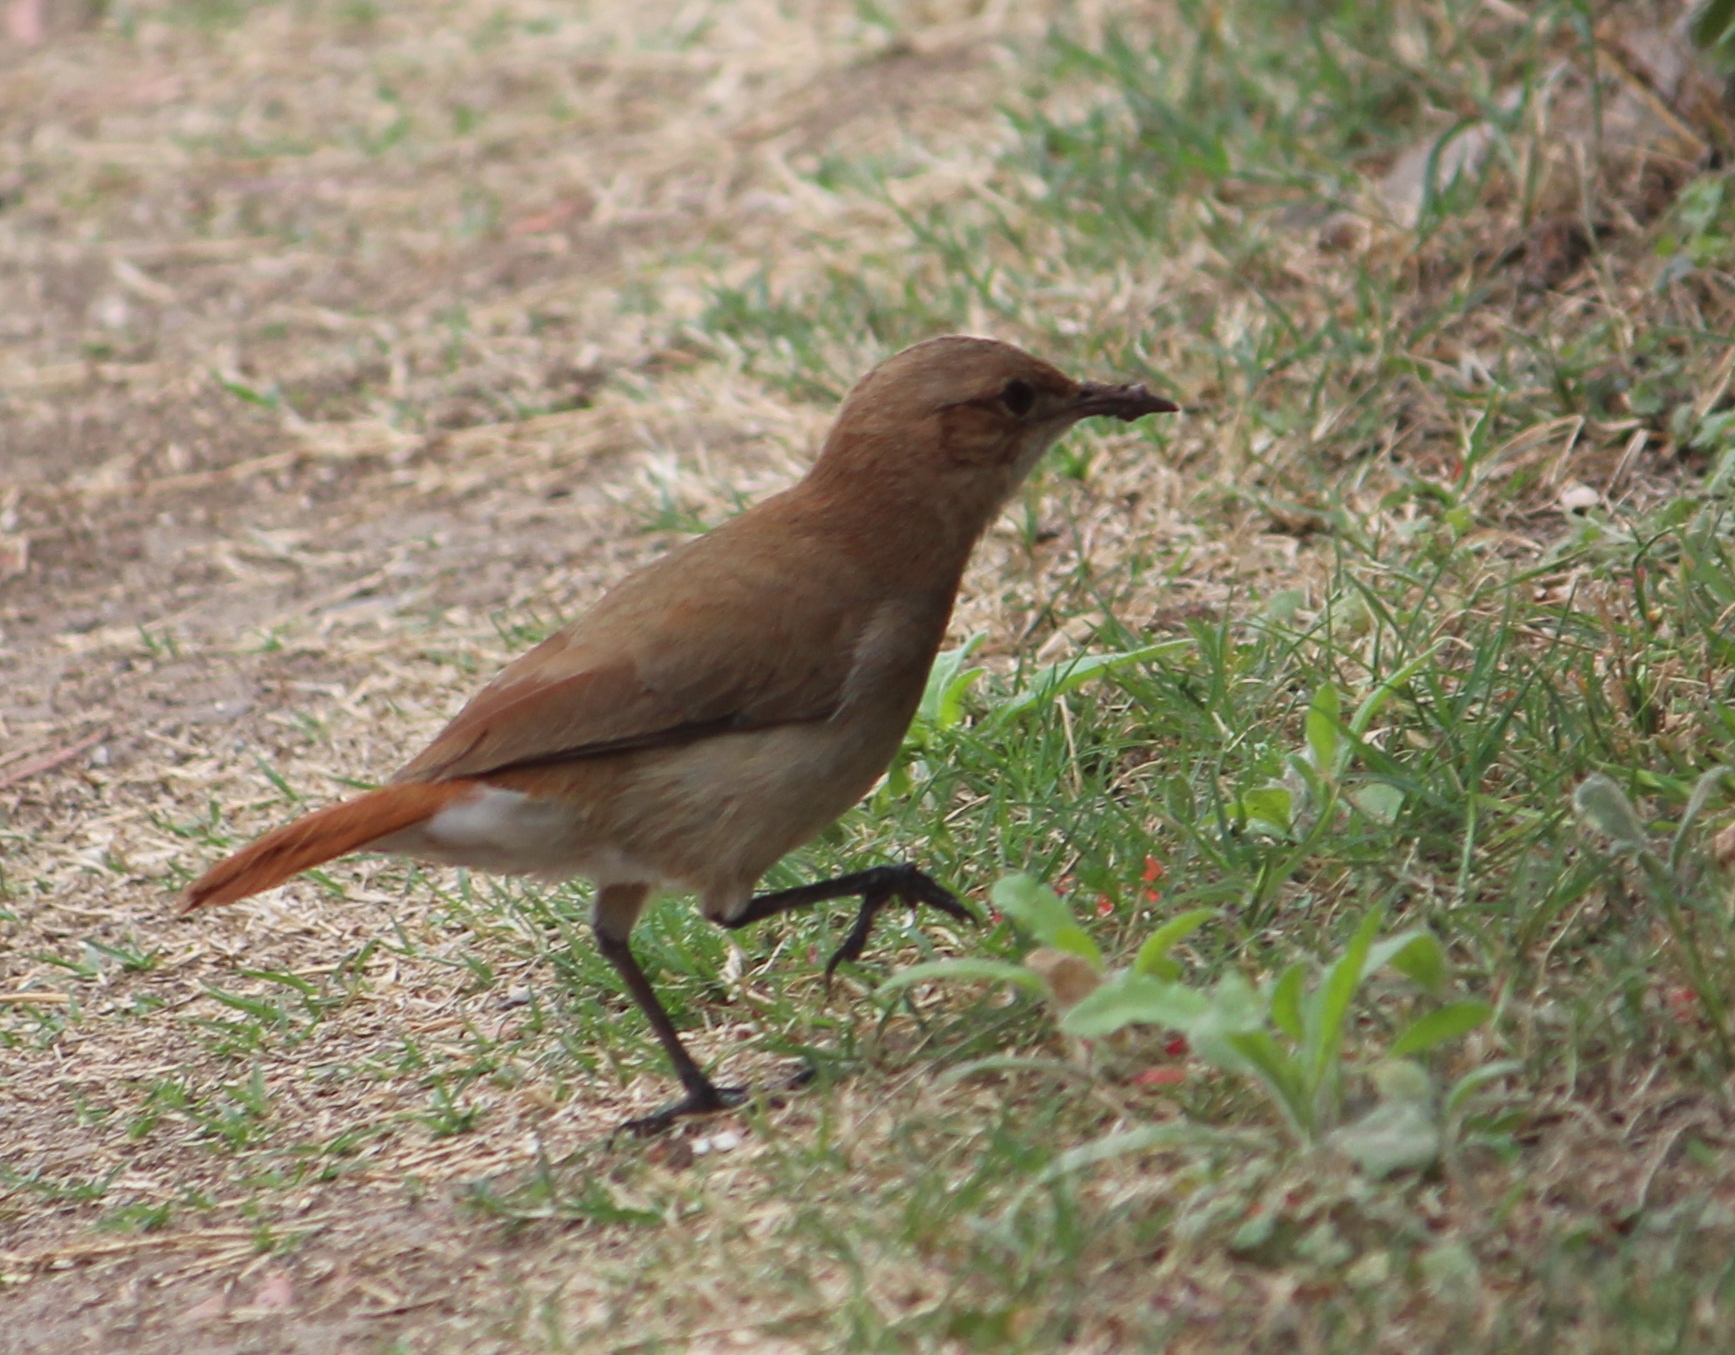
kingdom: Animalia
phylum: Chordata
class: Aves
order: Passeriformes
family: Furnariidae
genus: Furnarius
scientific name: Furnarius rufus
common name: Rufous hornero
